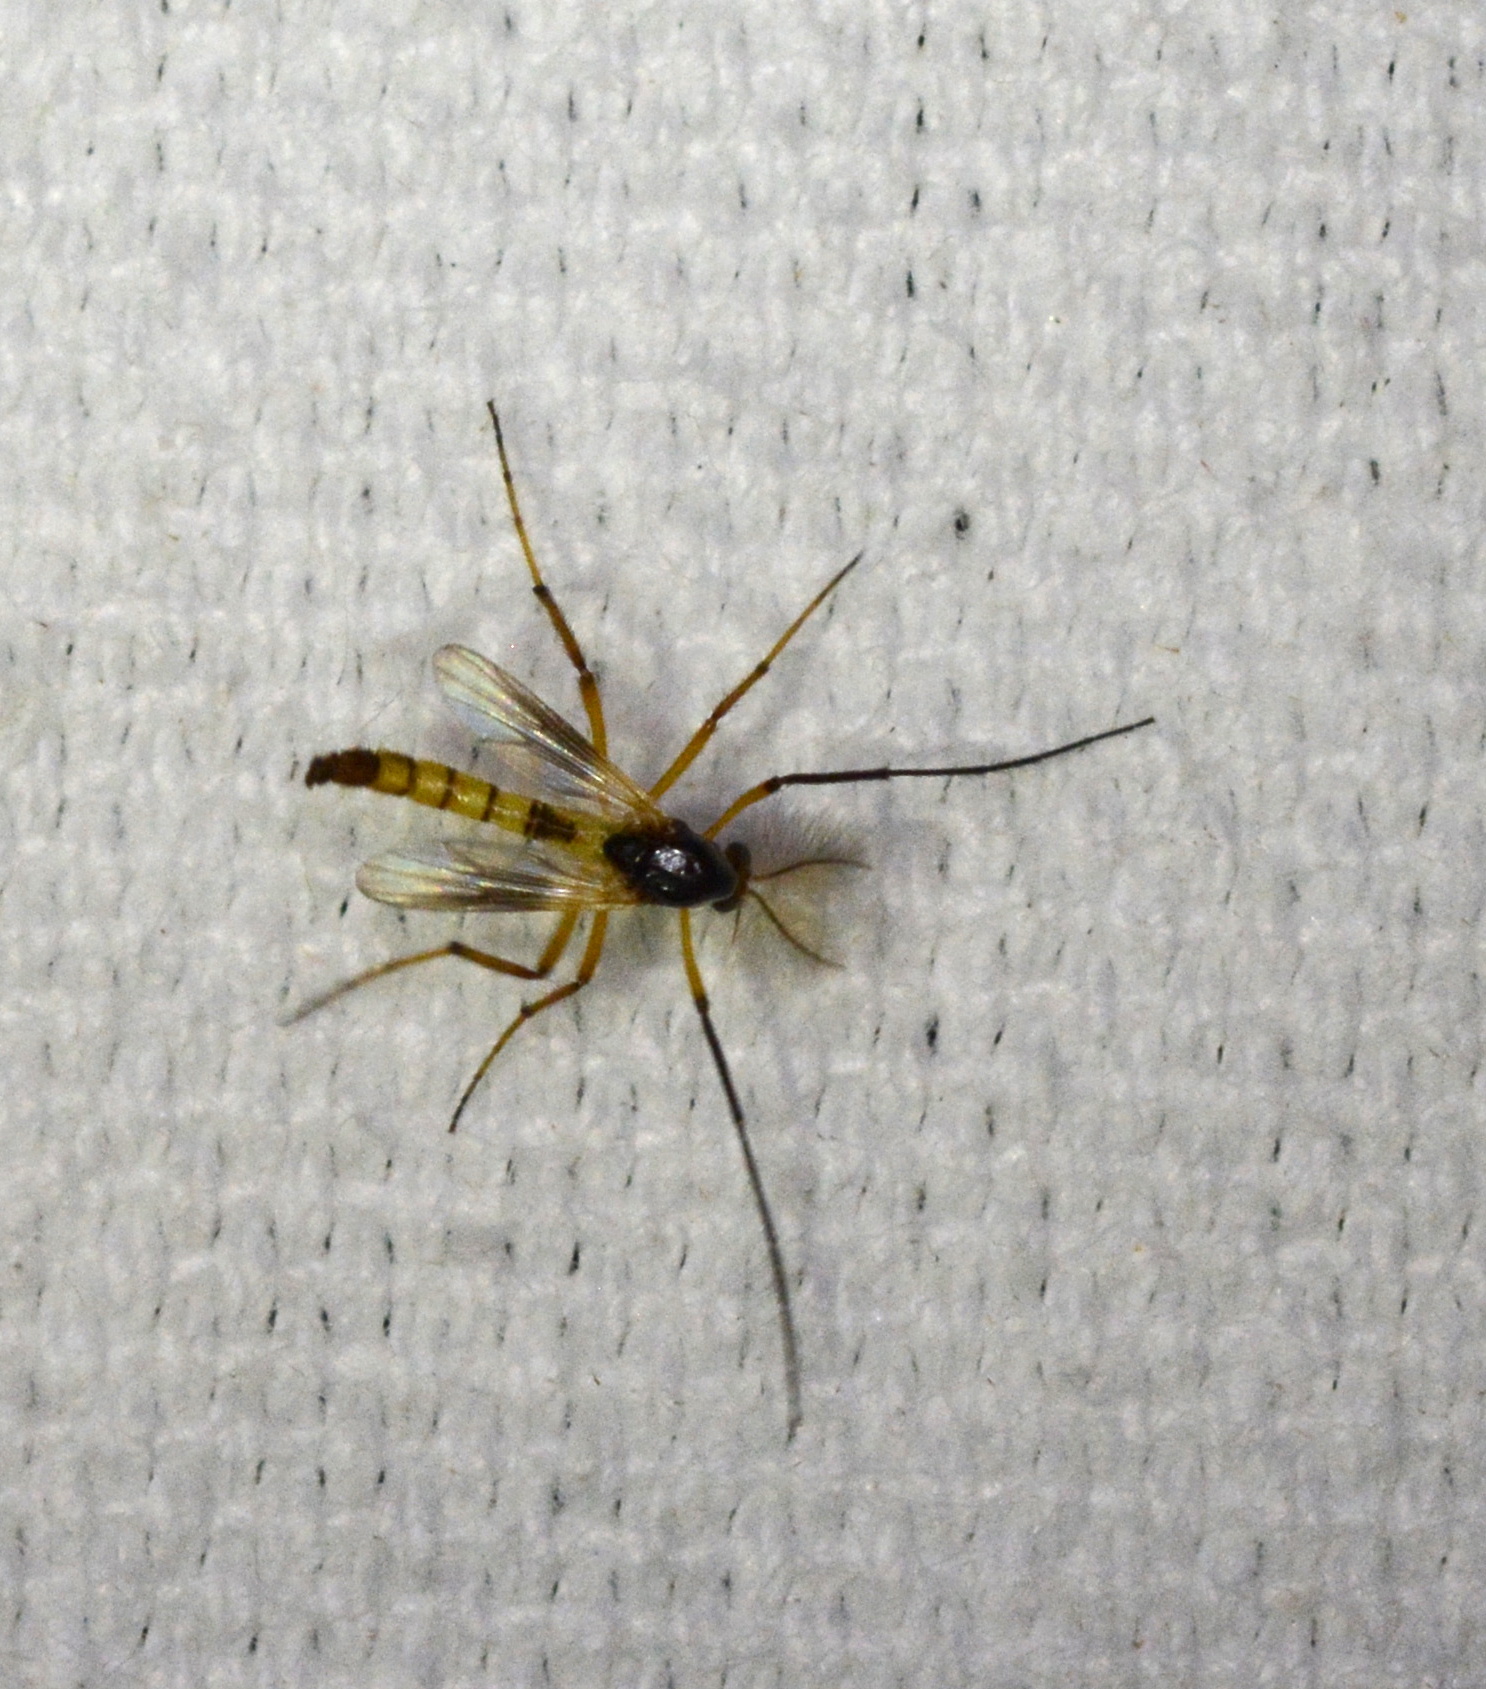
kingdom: Animalia
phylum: Arthropoda
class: Insecta
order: Diptera
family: Chironomidae
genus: Demeijerea
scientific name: Demeijerea atrimanus
